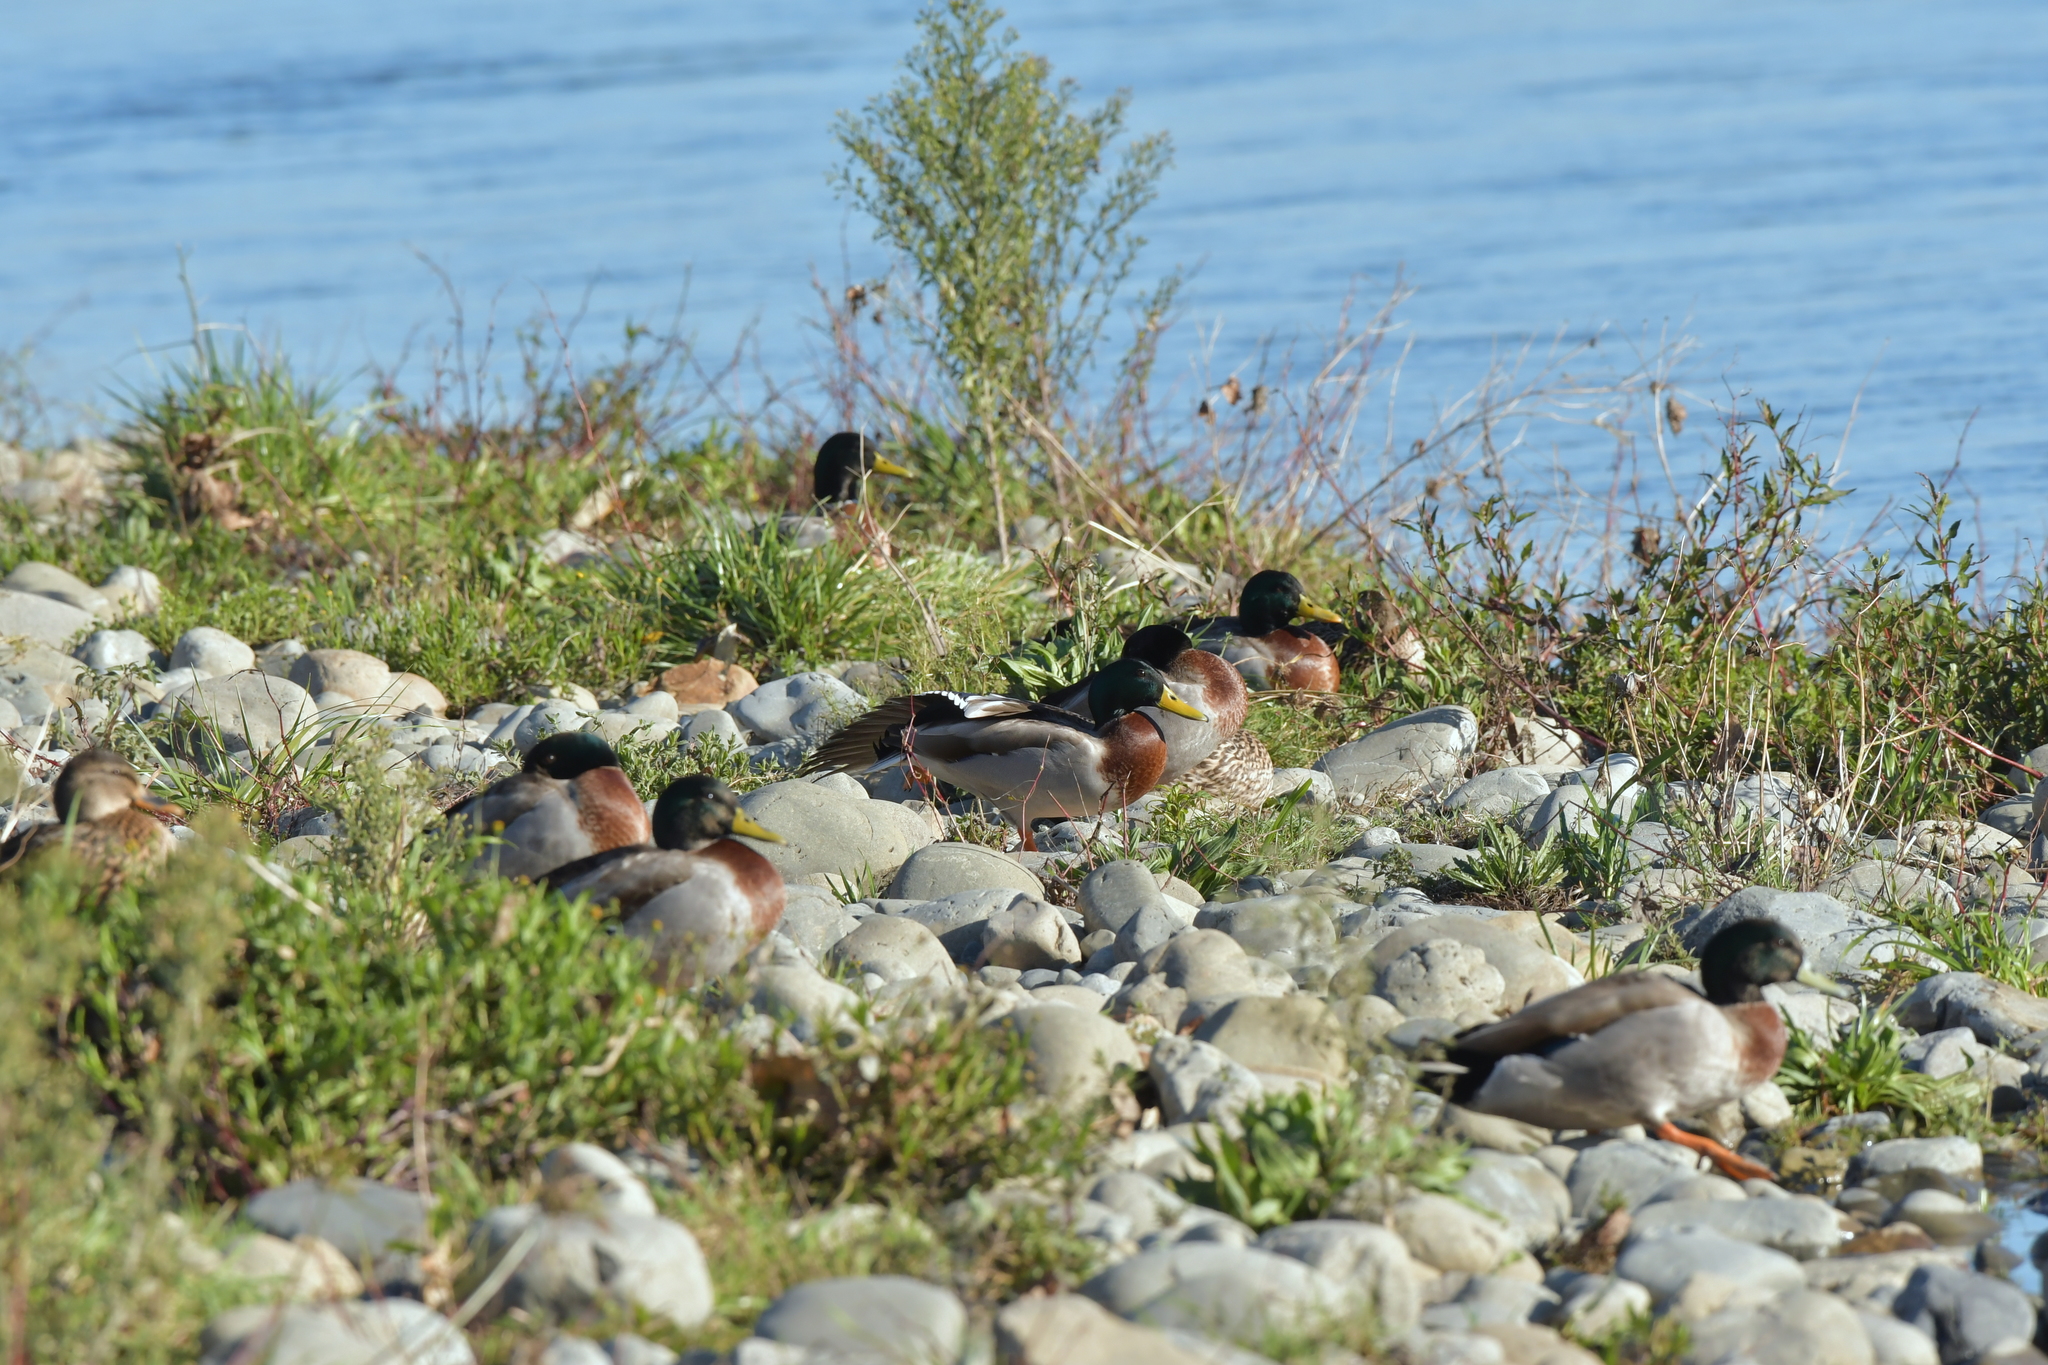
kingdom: Animalia
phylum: Chordata
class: Aves
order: Anseriformes
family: Anatidae
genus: Anas
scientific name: Anas platyrhynchos
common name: Mallard
